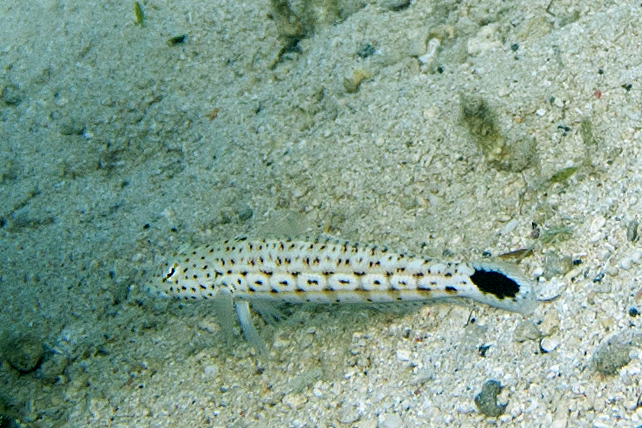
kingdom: Animalia
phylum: Chordata
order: Perciformes
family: Pinguipedidae
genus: Parapercis
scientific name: Parapercis xanthogramma
